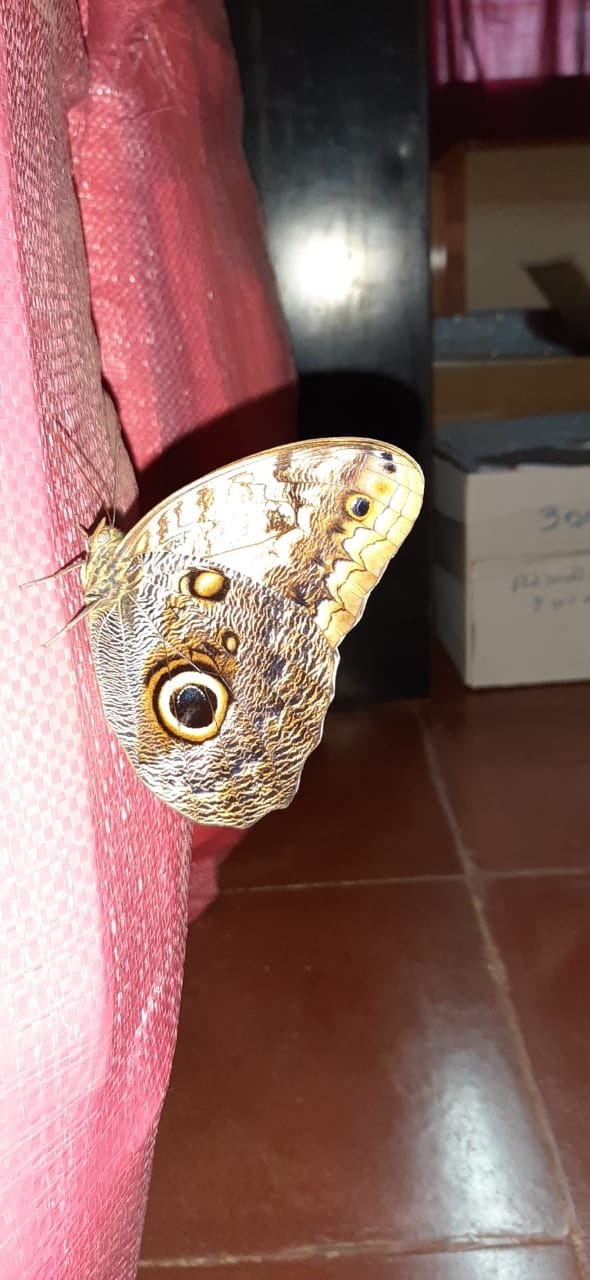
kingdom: Animalia
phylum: Arthropoda
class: Insecta
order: Lepidoptera
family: Nymphalidae
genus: Caligo
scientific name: Caligo telamonius
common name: Pale owl-butterfly
